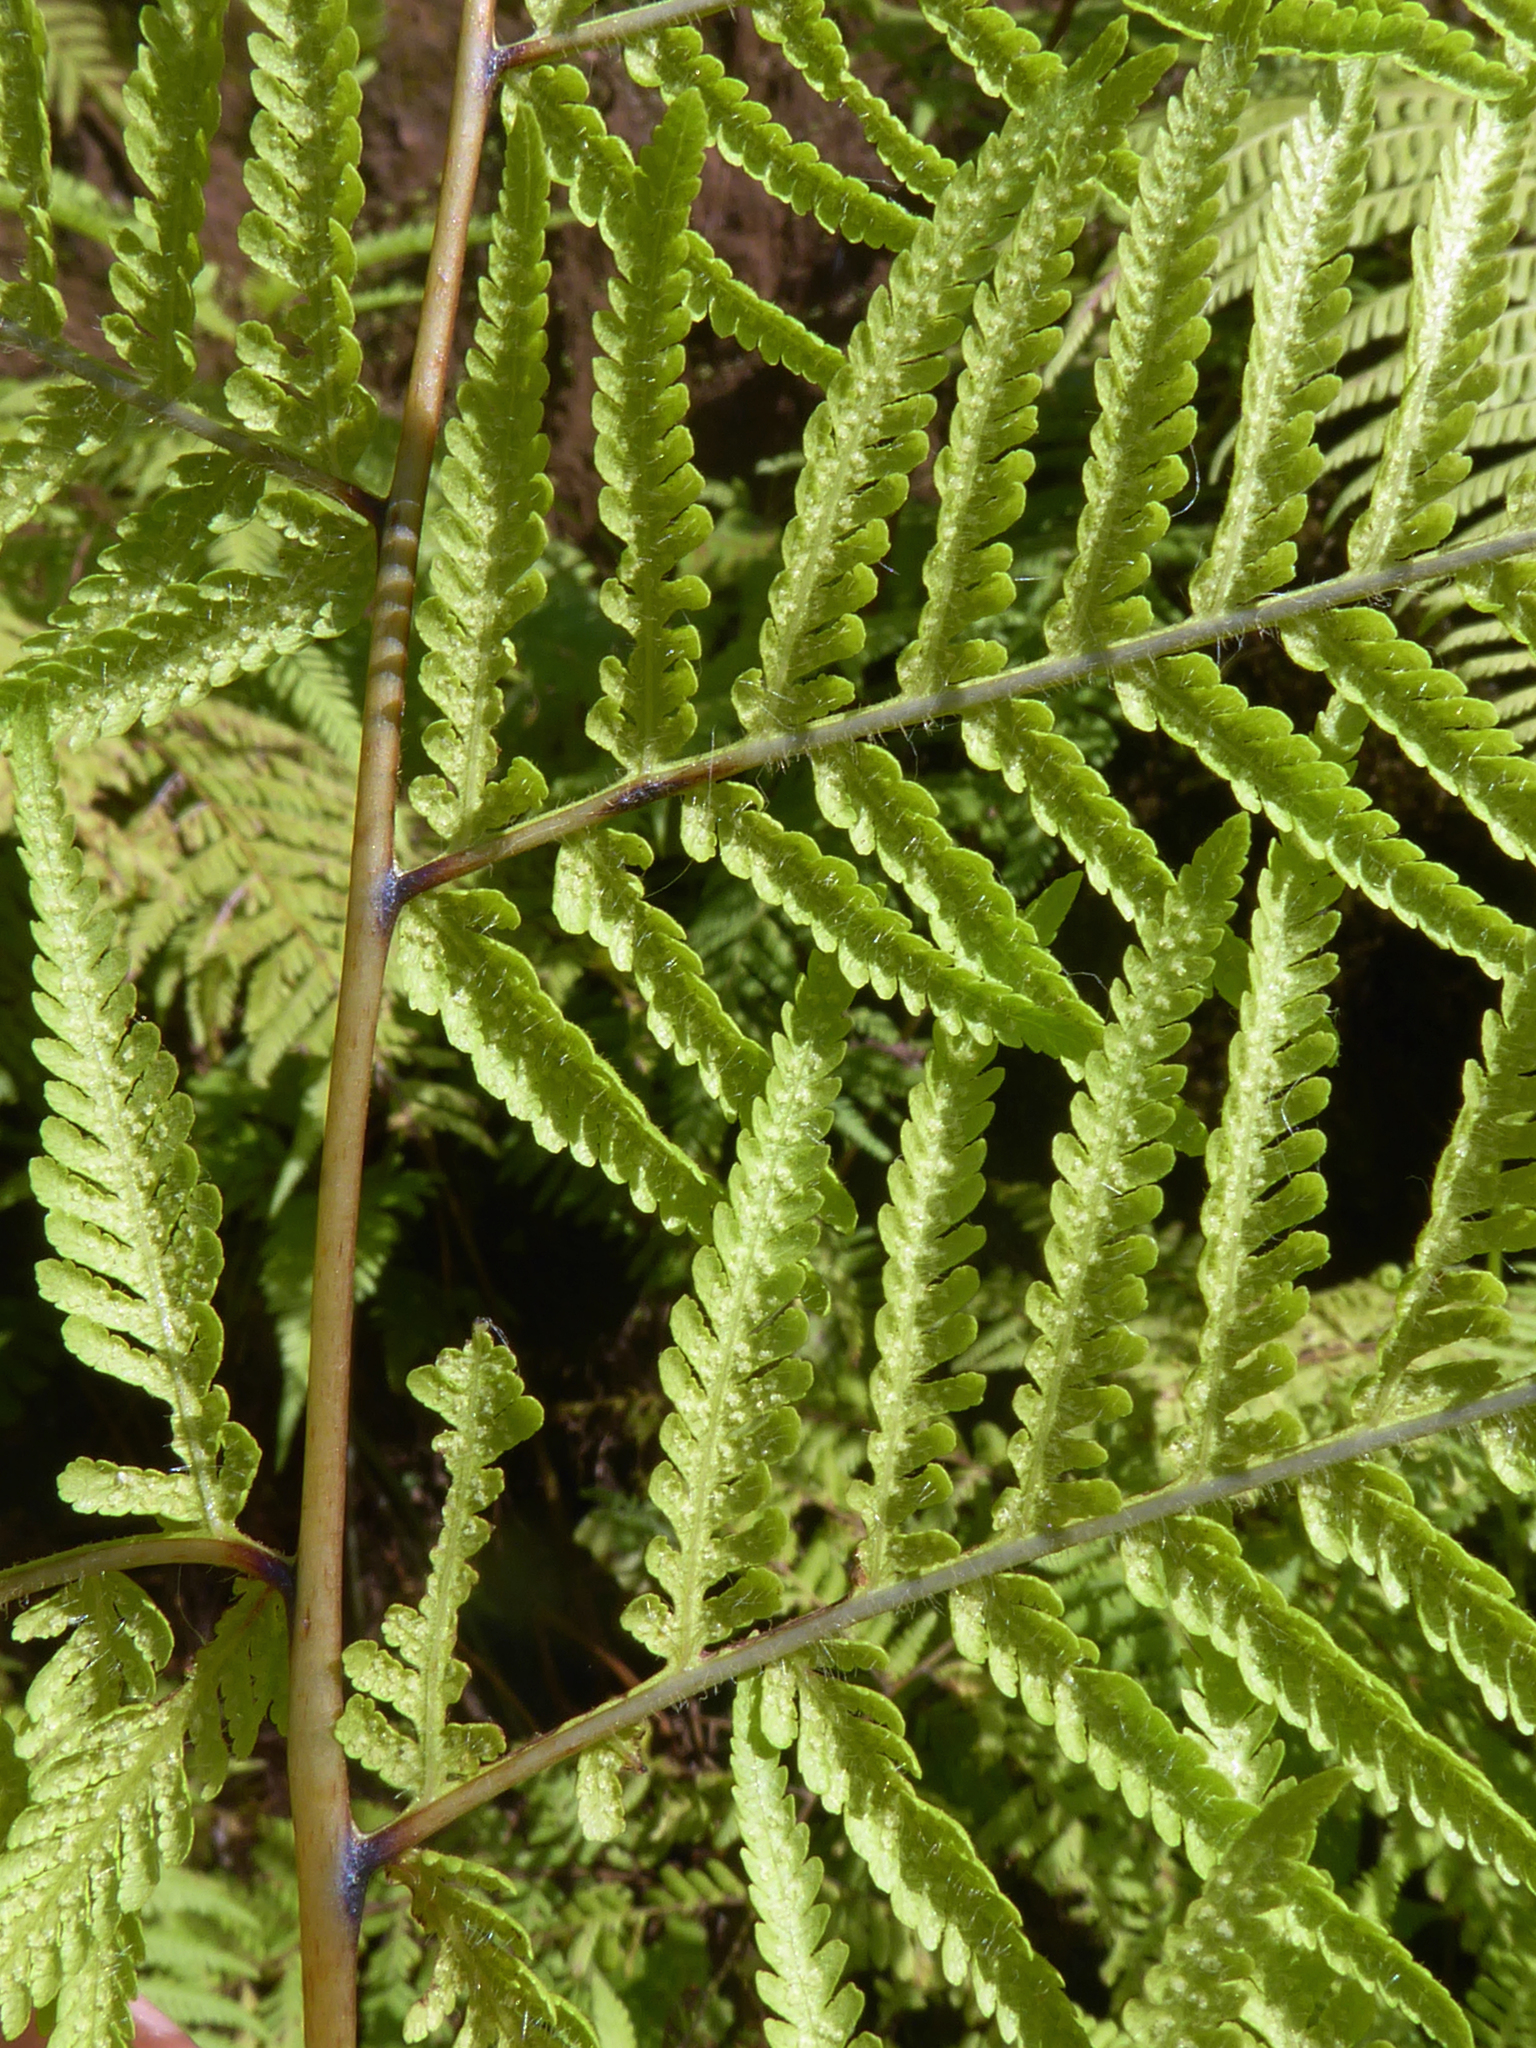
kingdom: Plantae
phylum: Tracheophyta
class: Polypodiopsida
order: Polypodiales
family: Thelypteridaceae
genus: Macrothelypteris
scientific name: Macrothelypteris torresiana
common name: Swordfern
